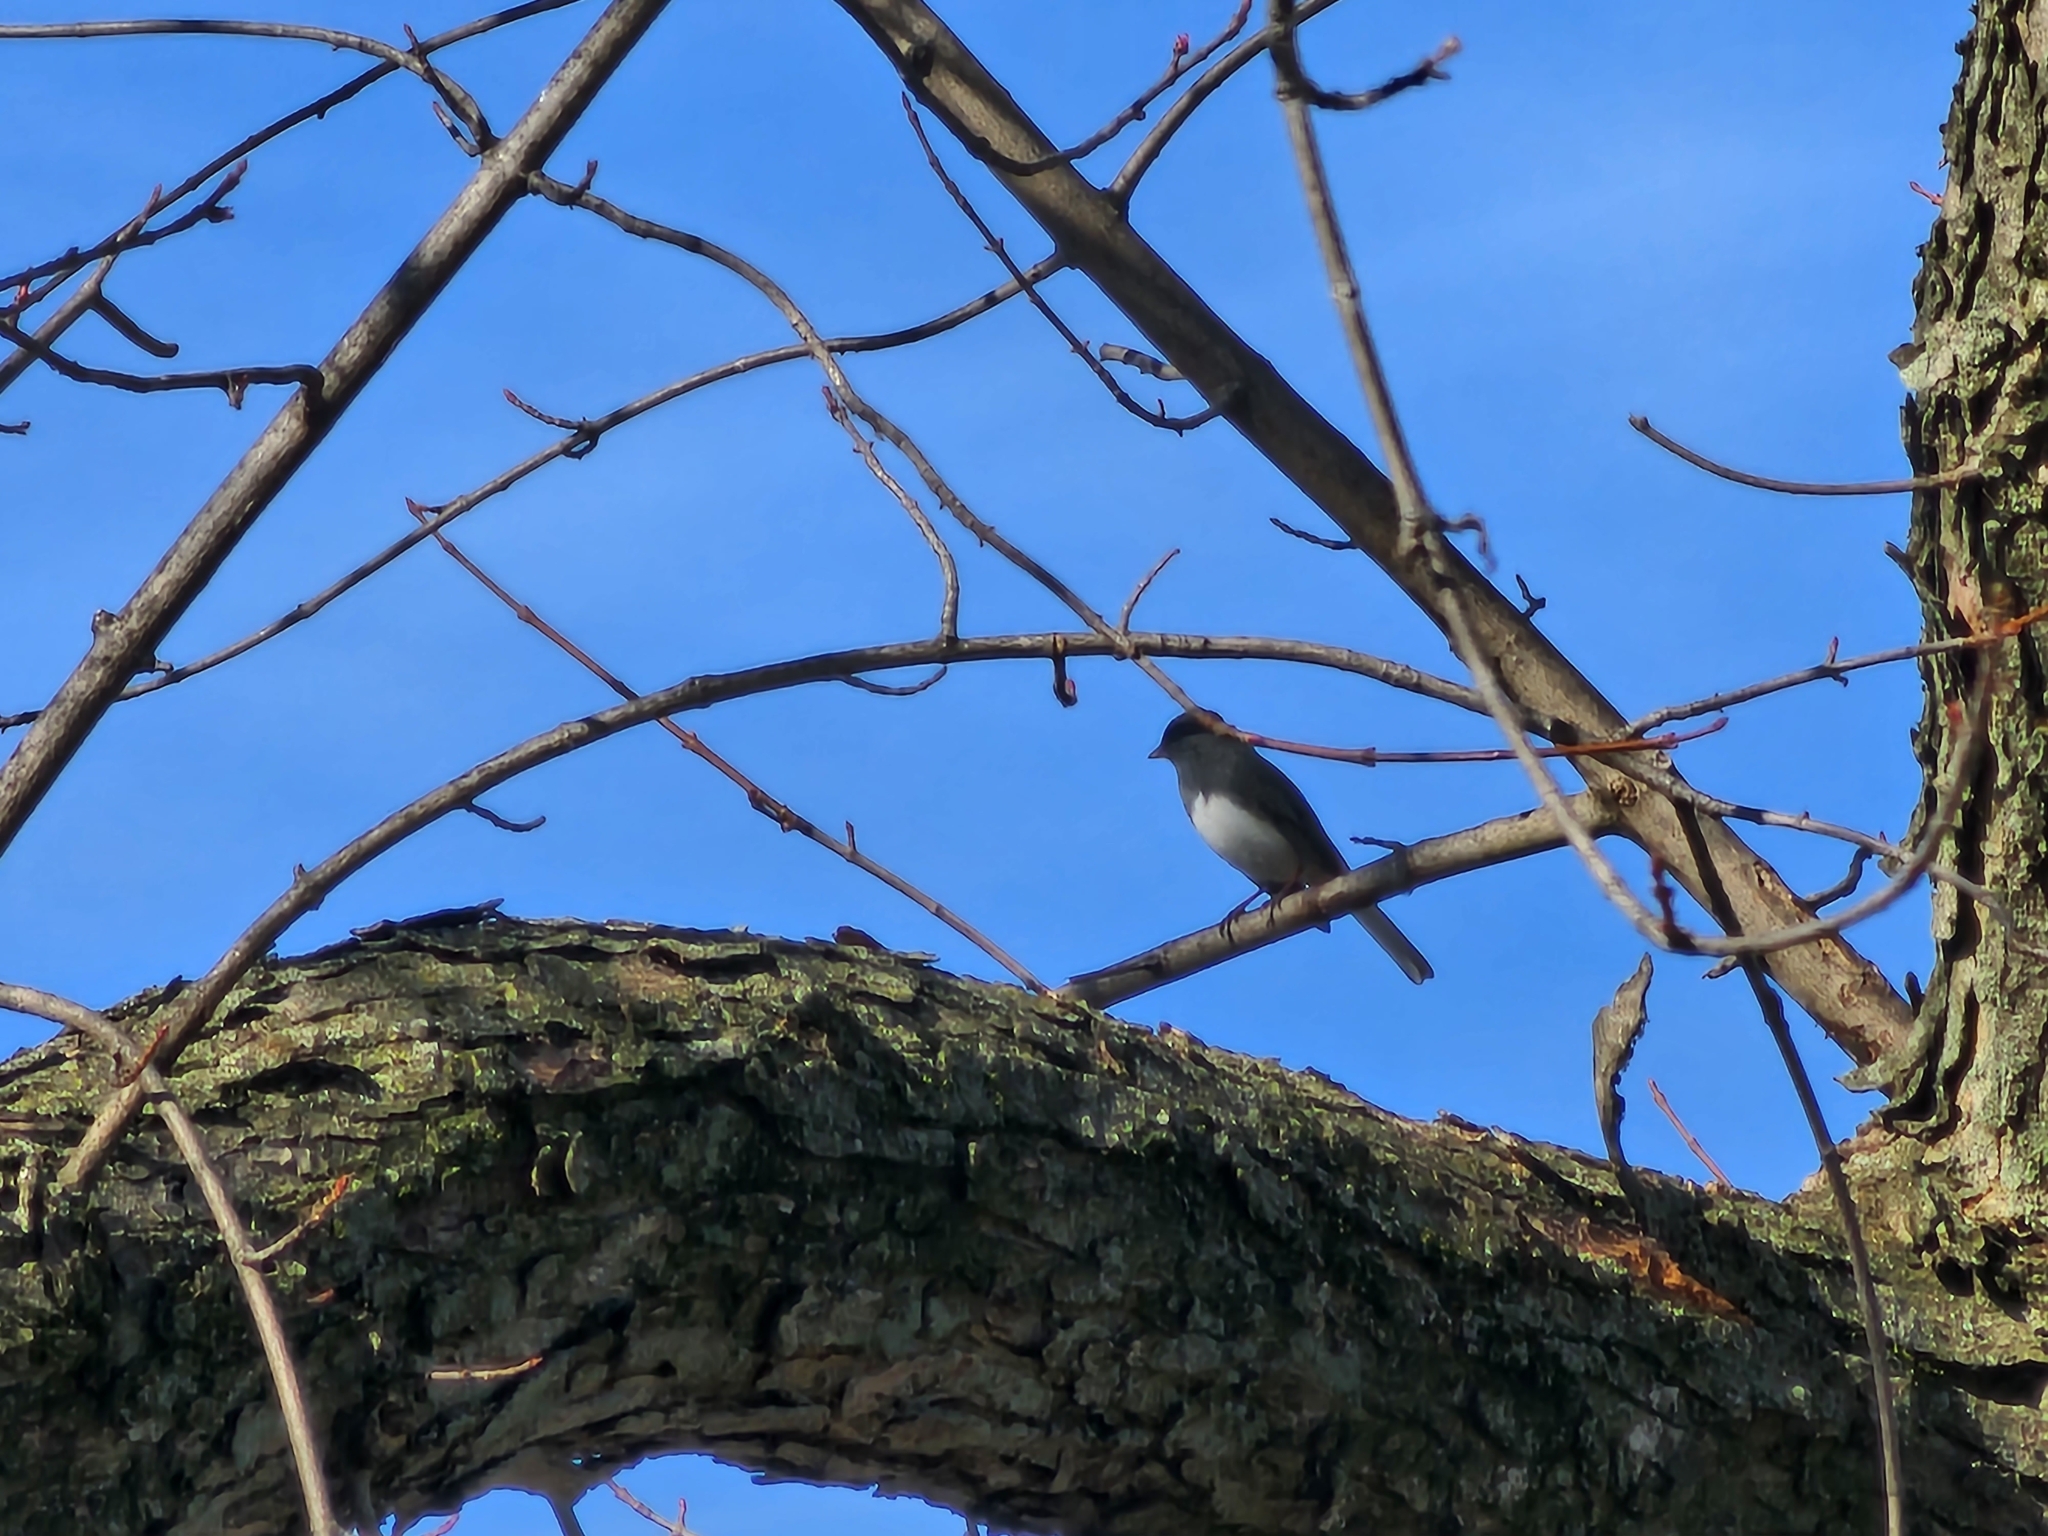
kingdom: Animalia
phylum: Chordata
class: Aves
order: Passeriformes
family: Passerellidae
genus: Junco
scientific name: Junco hyemalis
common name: Dark-eyed junco
